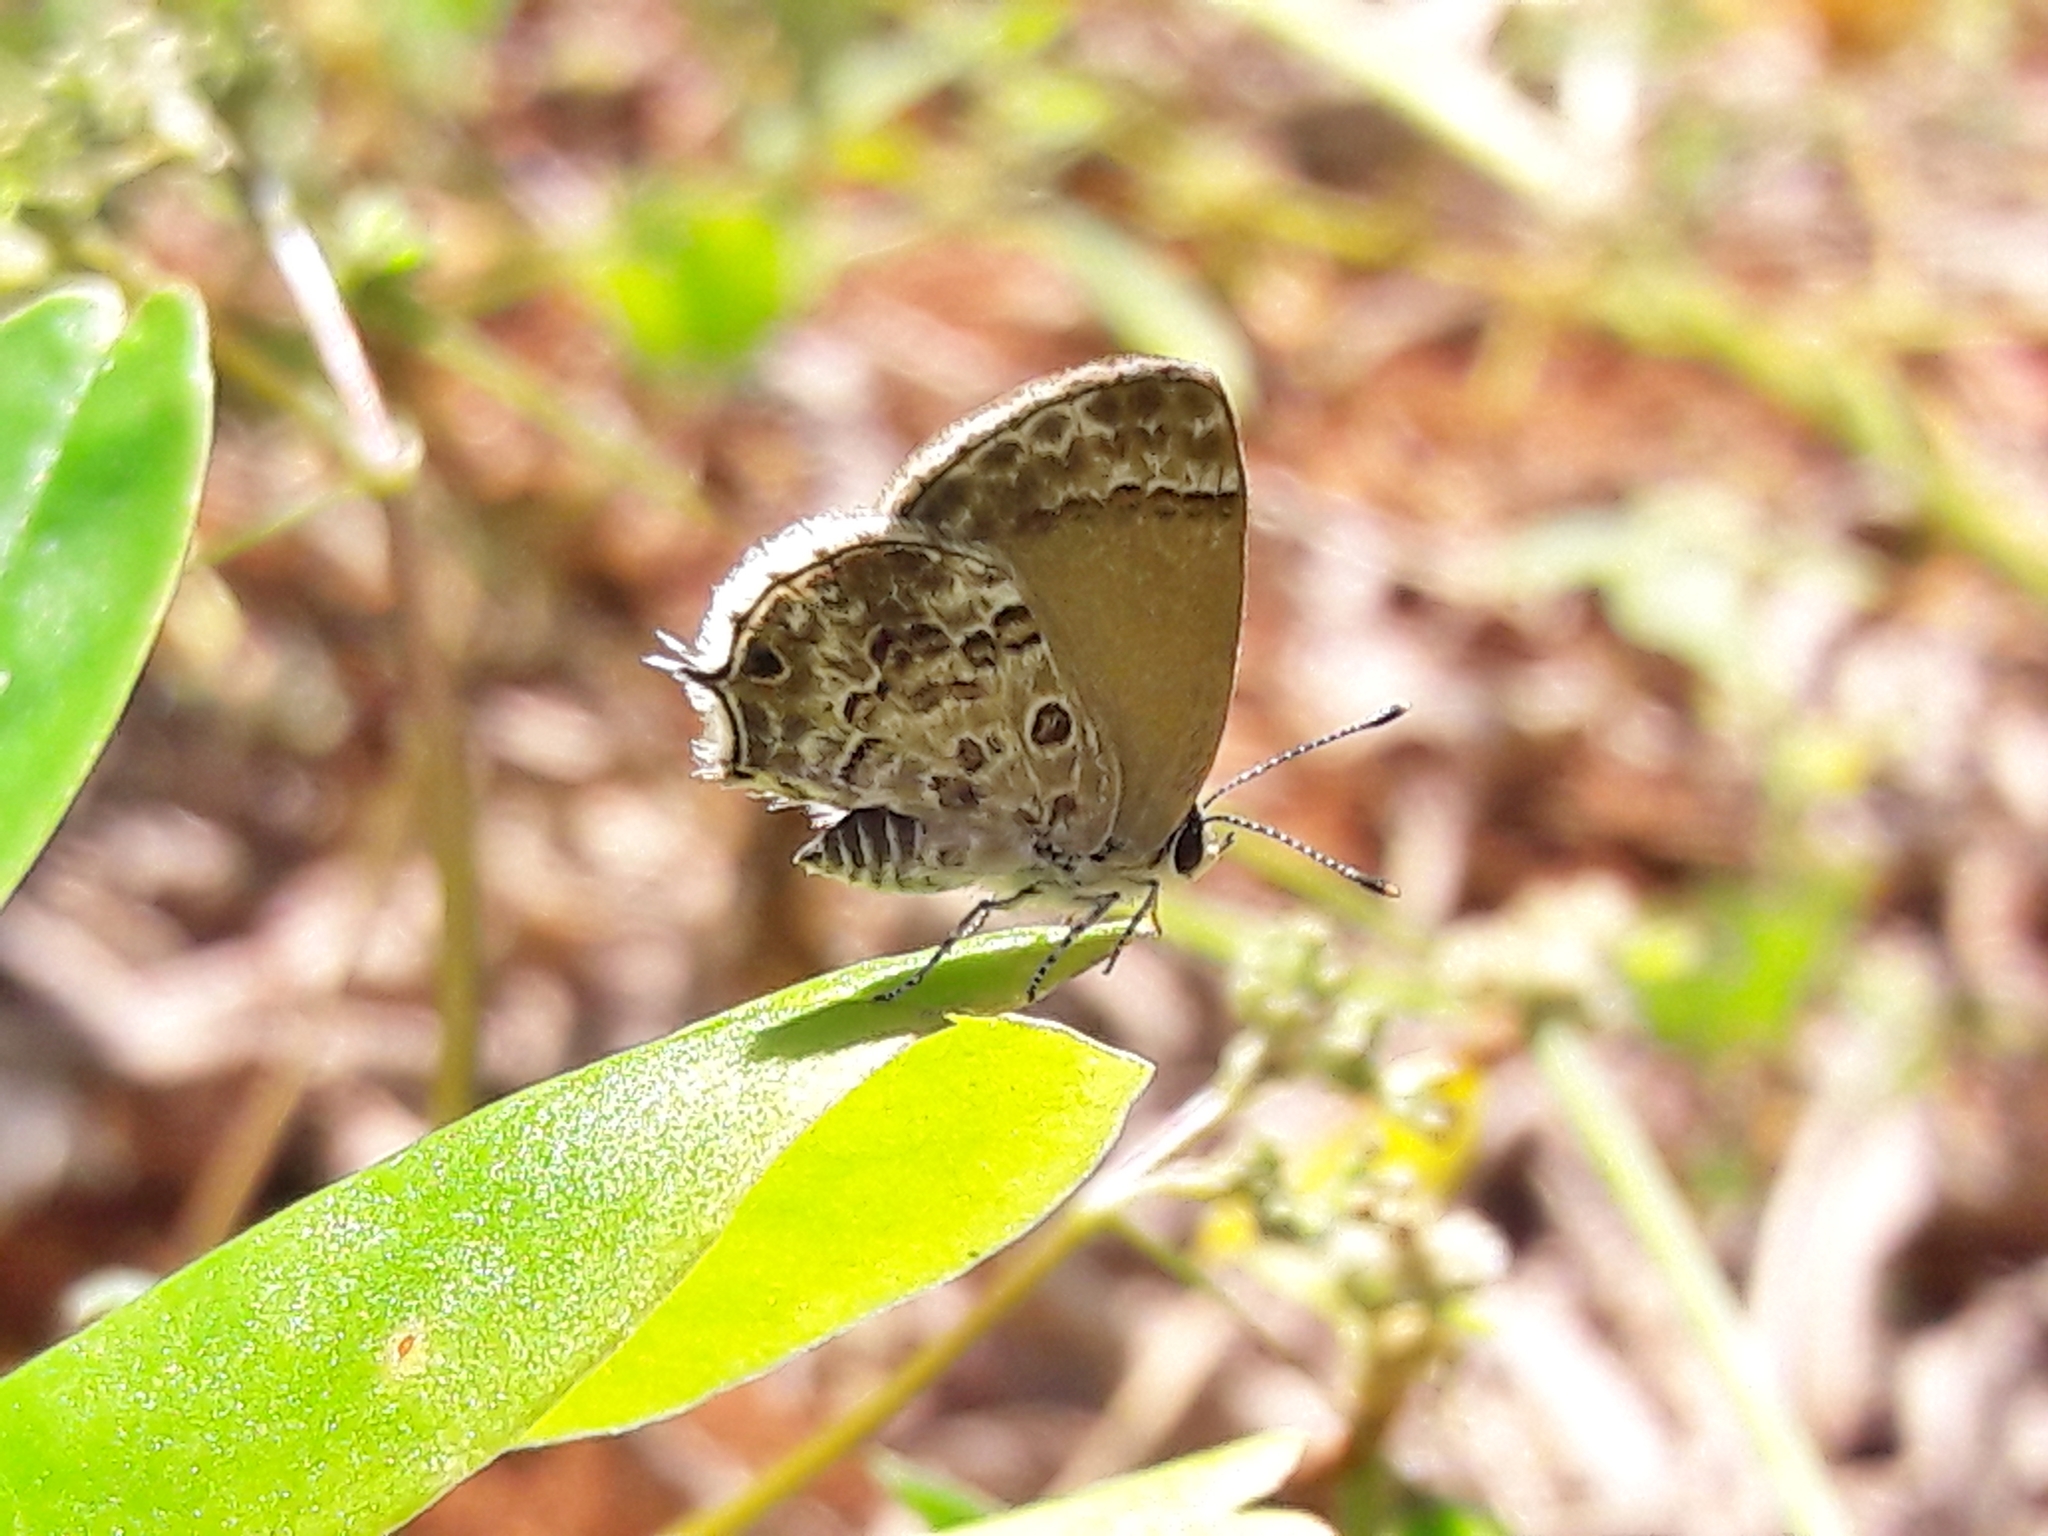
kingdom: Animalia
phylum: Arthropoda
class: Insecta
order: Lepidoptera
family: Lycaenidae
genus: Strymon
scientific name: Strymon astiocha
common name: Gray-spotted scrub-hairstreak
